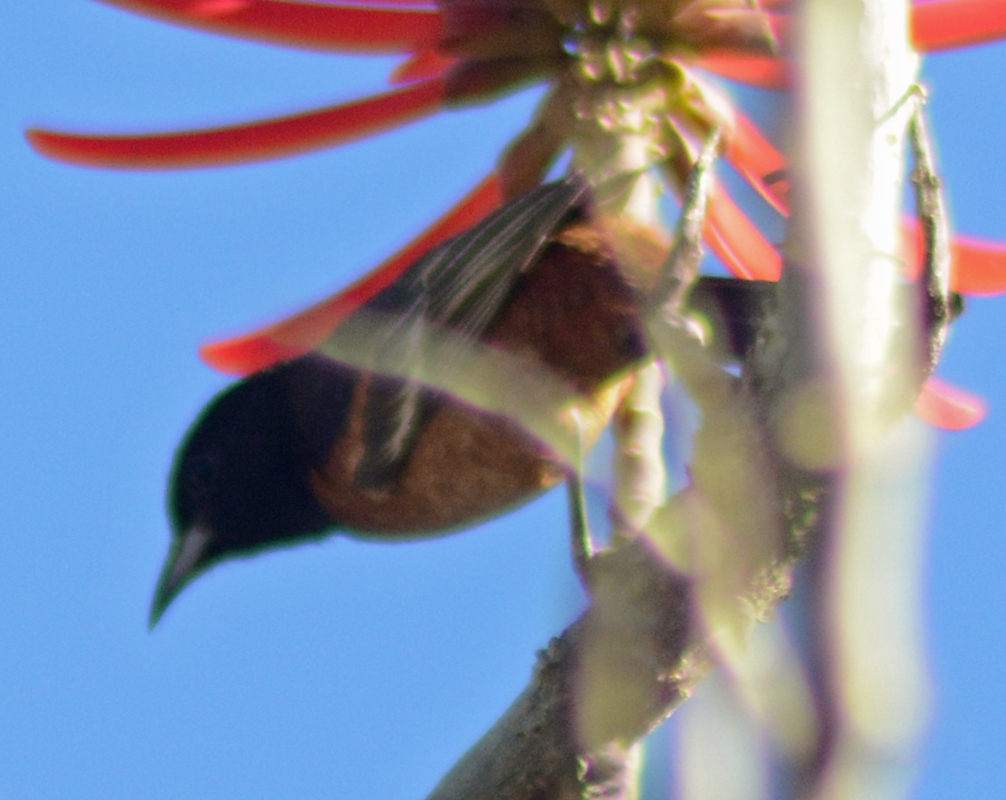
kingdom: Animalia
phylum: Chordata
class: Aves
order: Passeriformes
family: Icteridae
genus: Icterus
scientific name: Icterus spurius
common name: Orchard oriole
